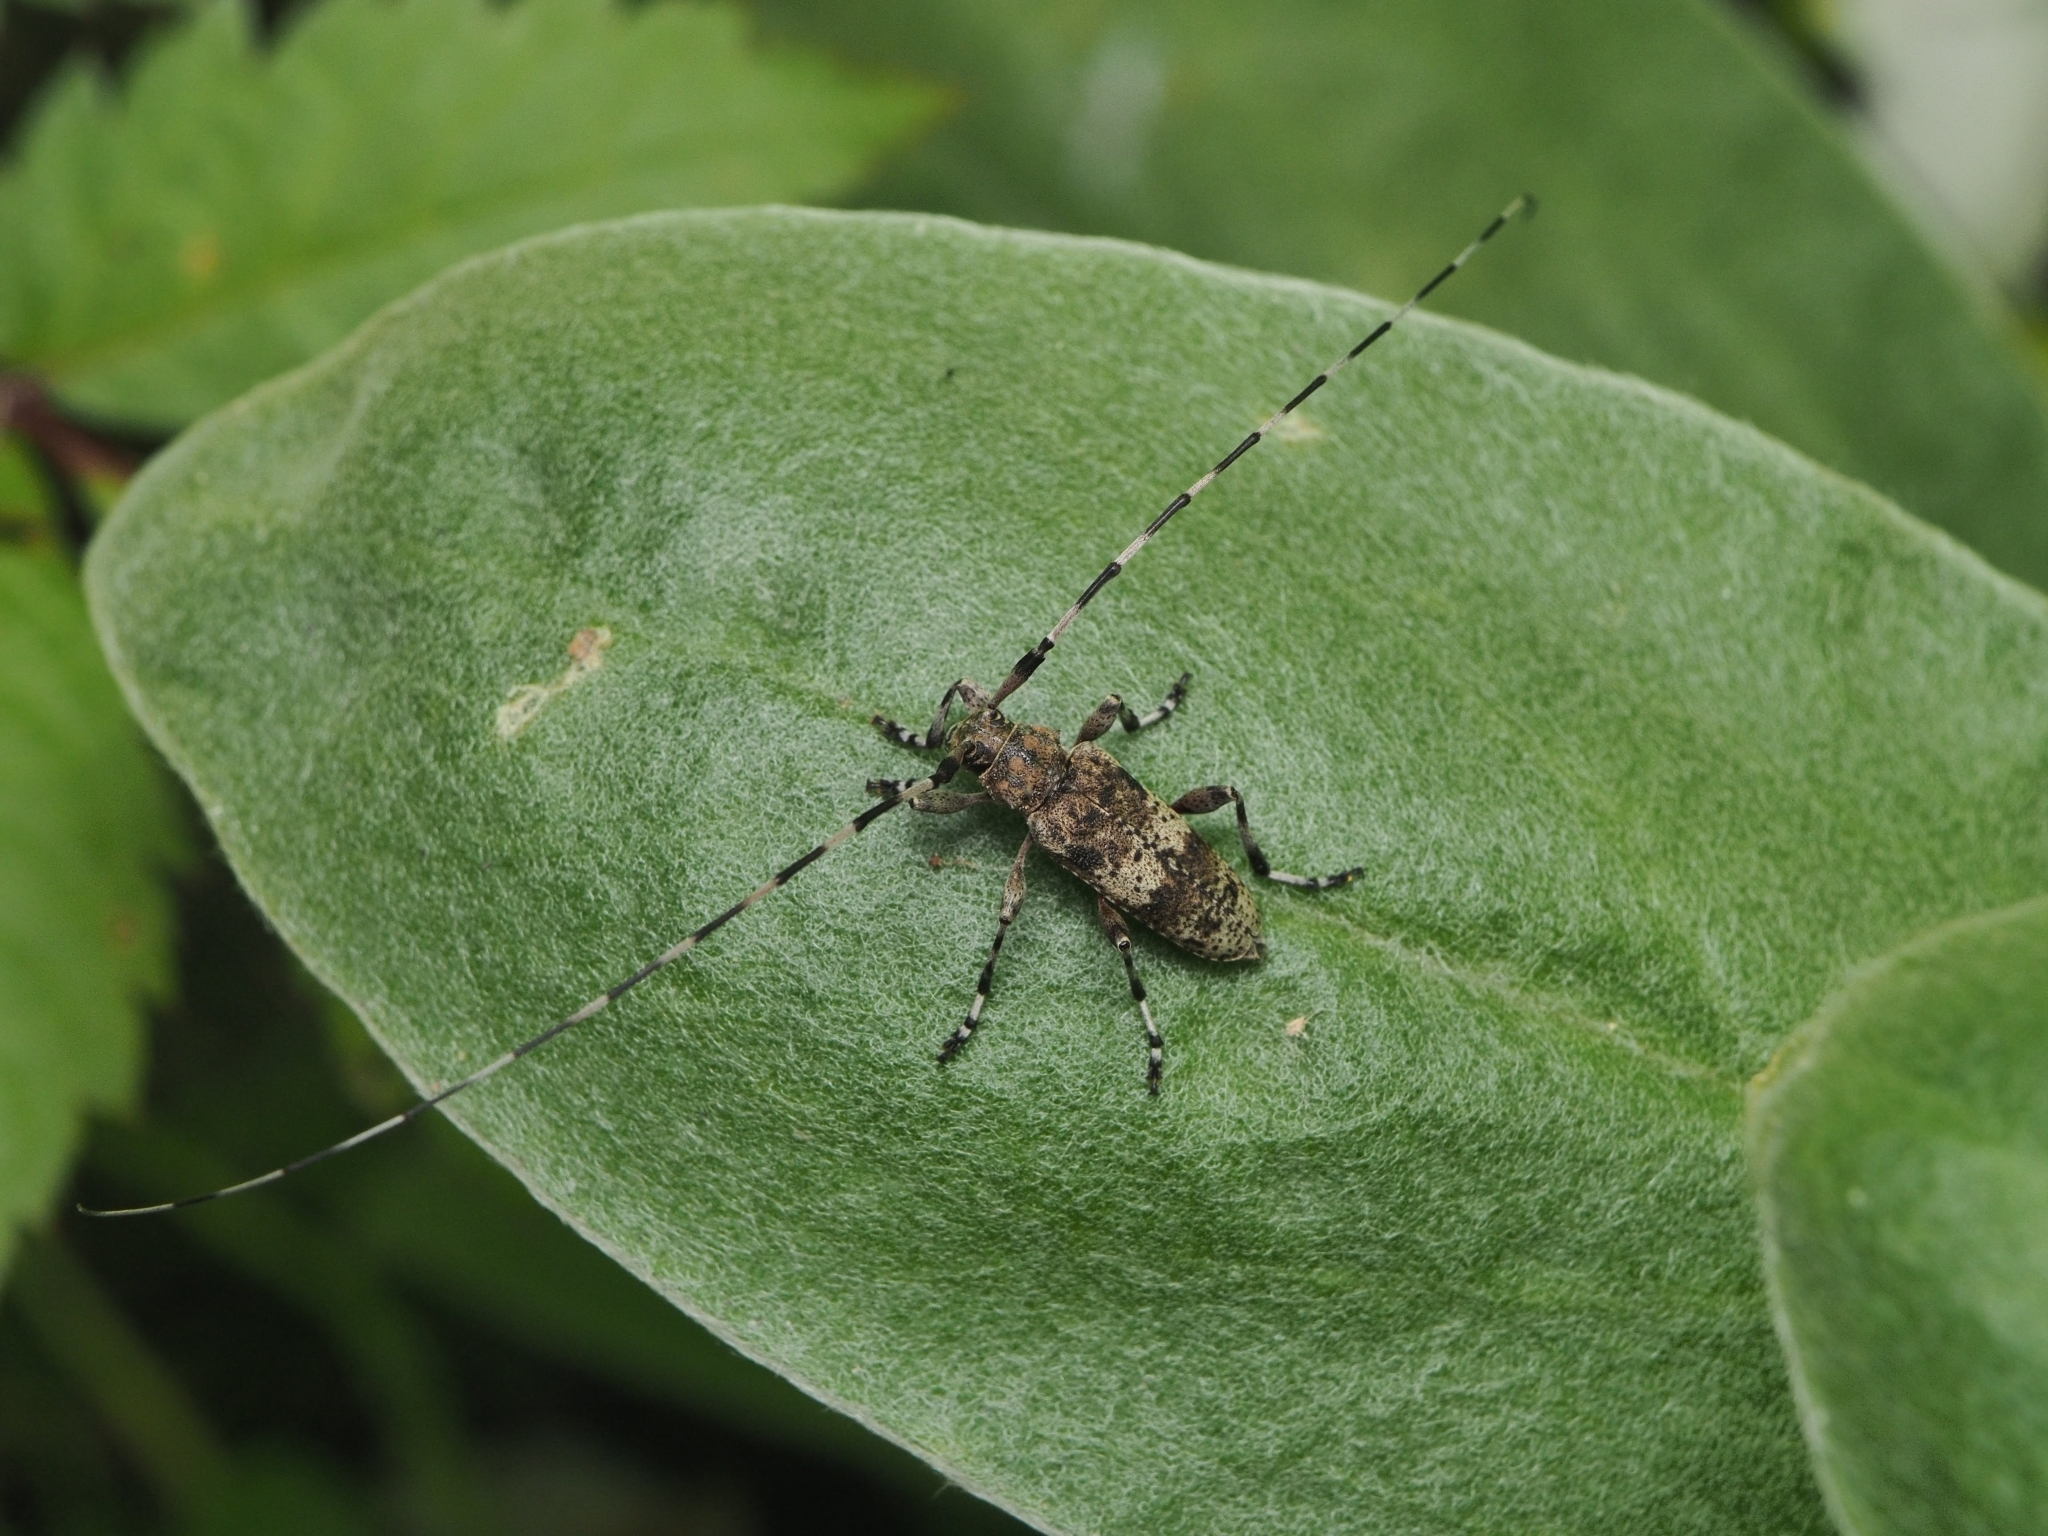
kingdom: Animalia
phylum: Arthropoda
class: Insecta
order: Coleoptera
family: Cerambycidae
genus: Acanthocinus
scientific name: Acanthocinus griseus
